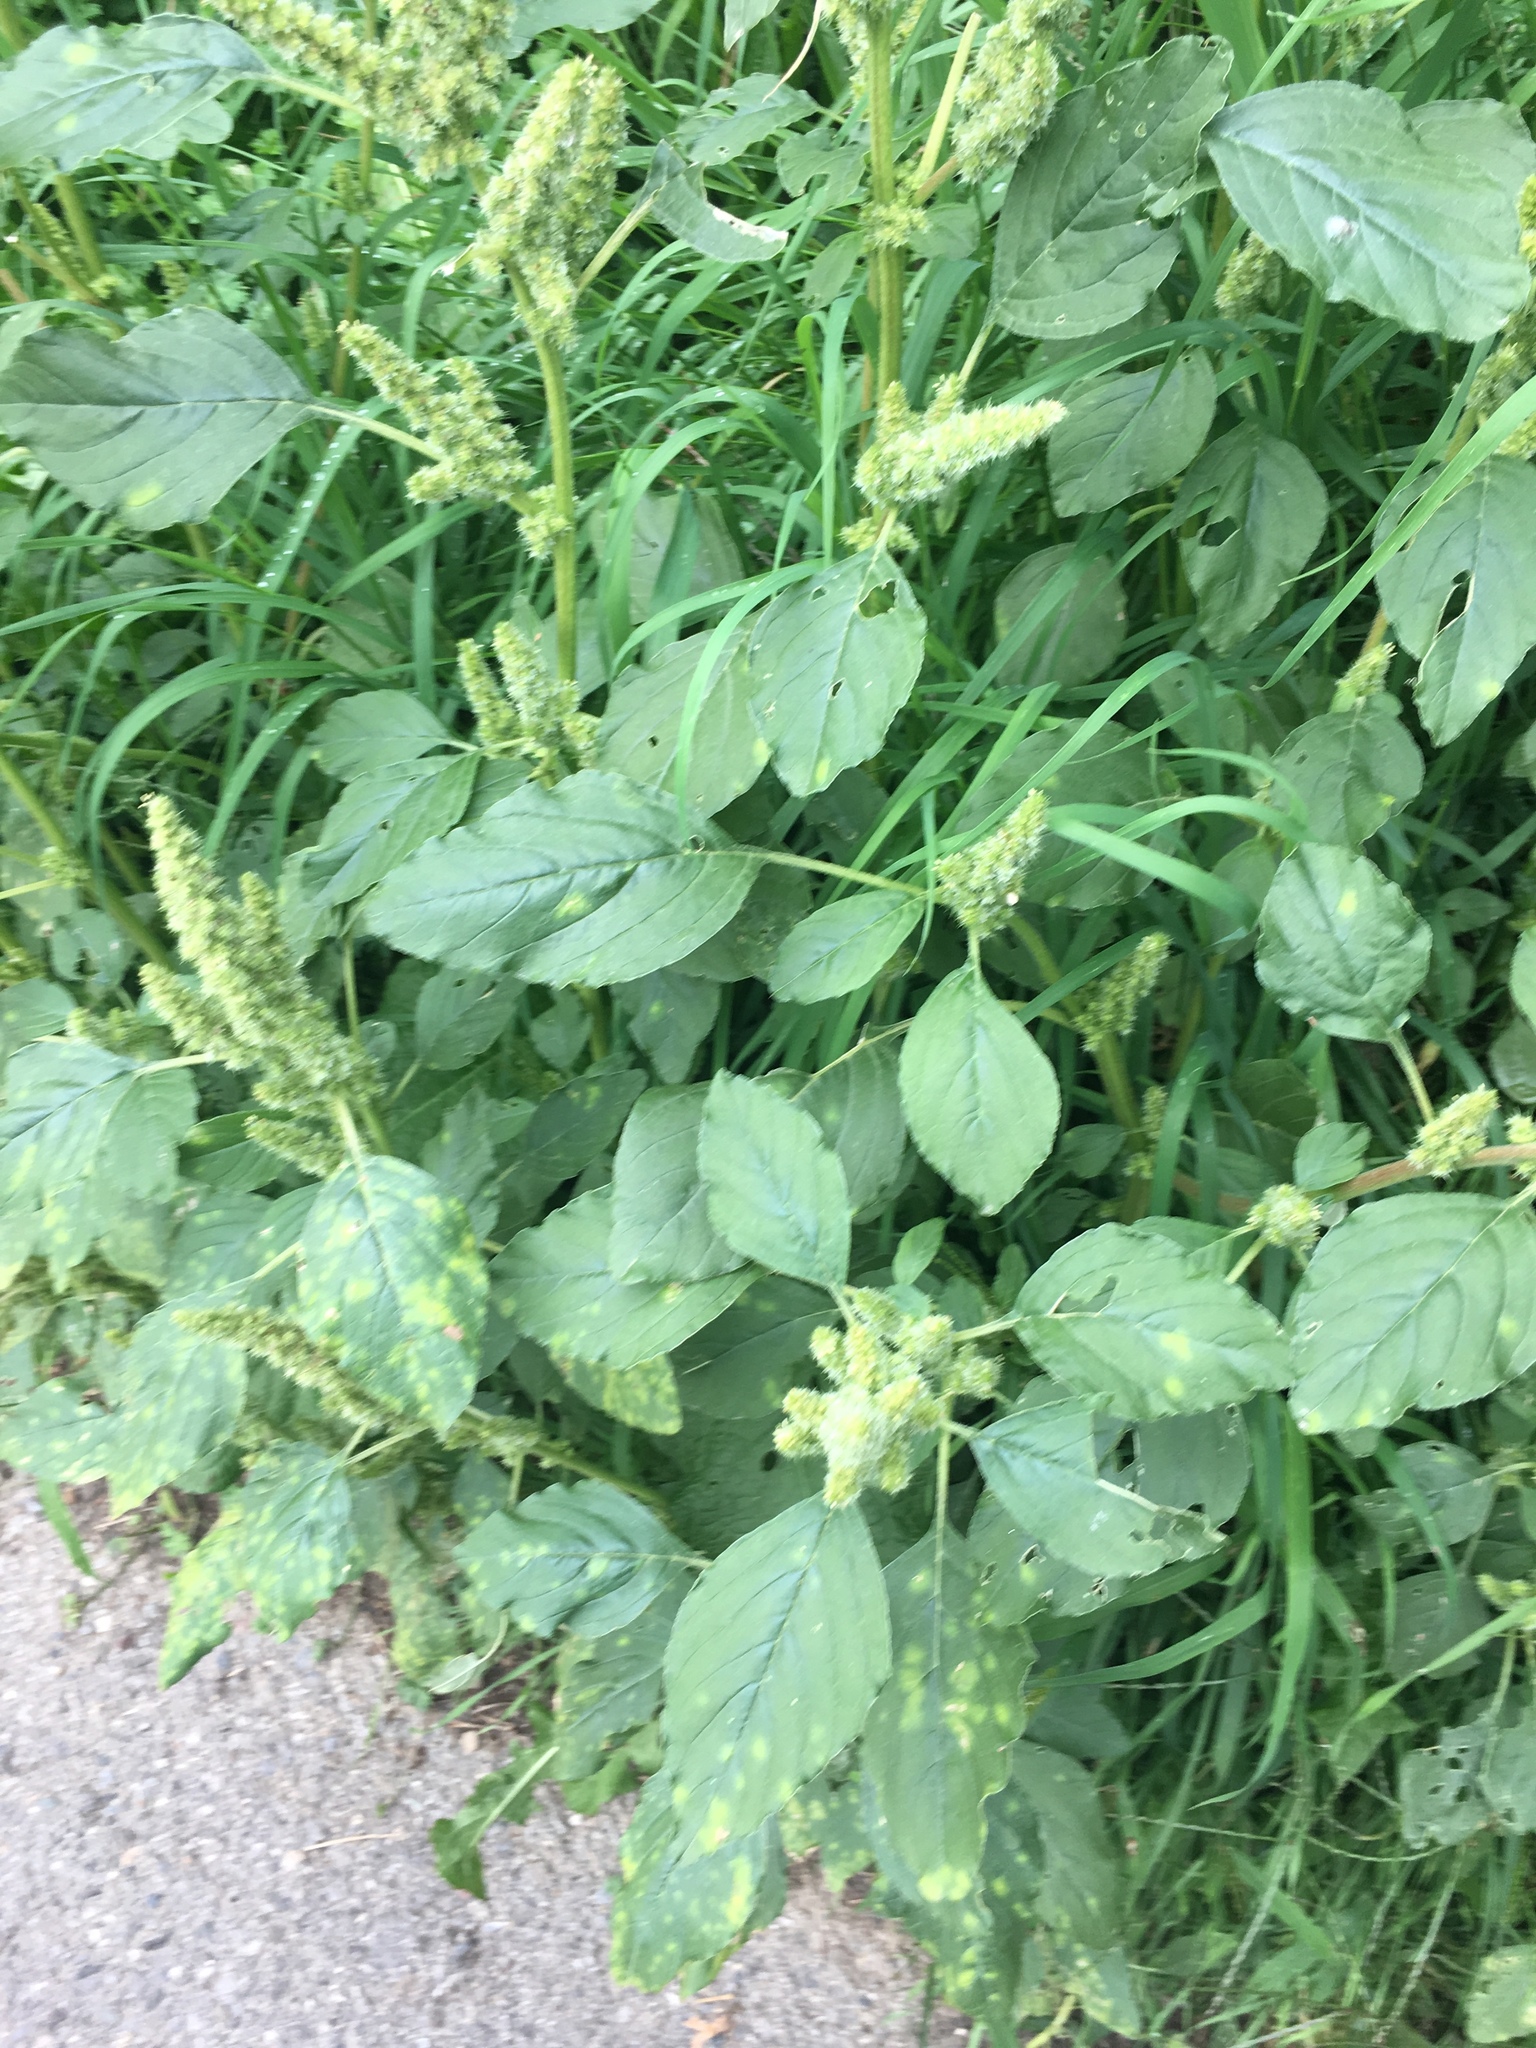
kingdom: Plantae
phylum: Tracheophyta
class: Magnoliopsida
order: Caryophyllales
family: Amaranthaceae
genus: Amaranthus
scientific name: Amaranthus retroflexus
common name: Redroot amaranth
